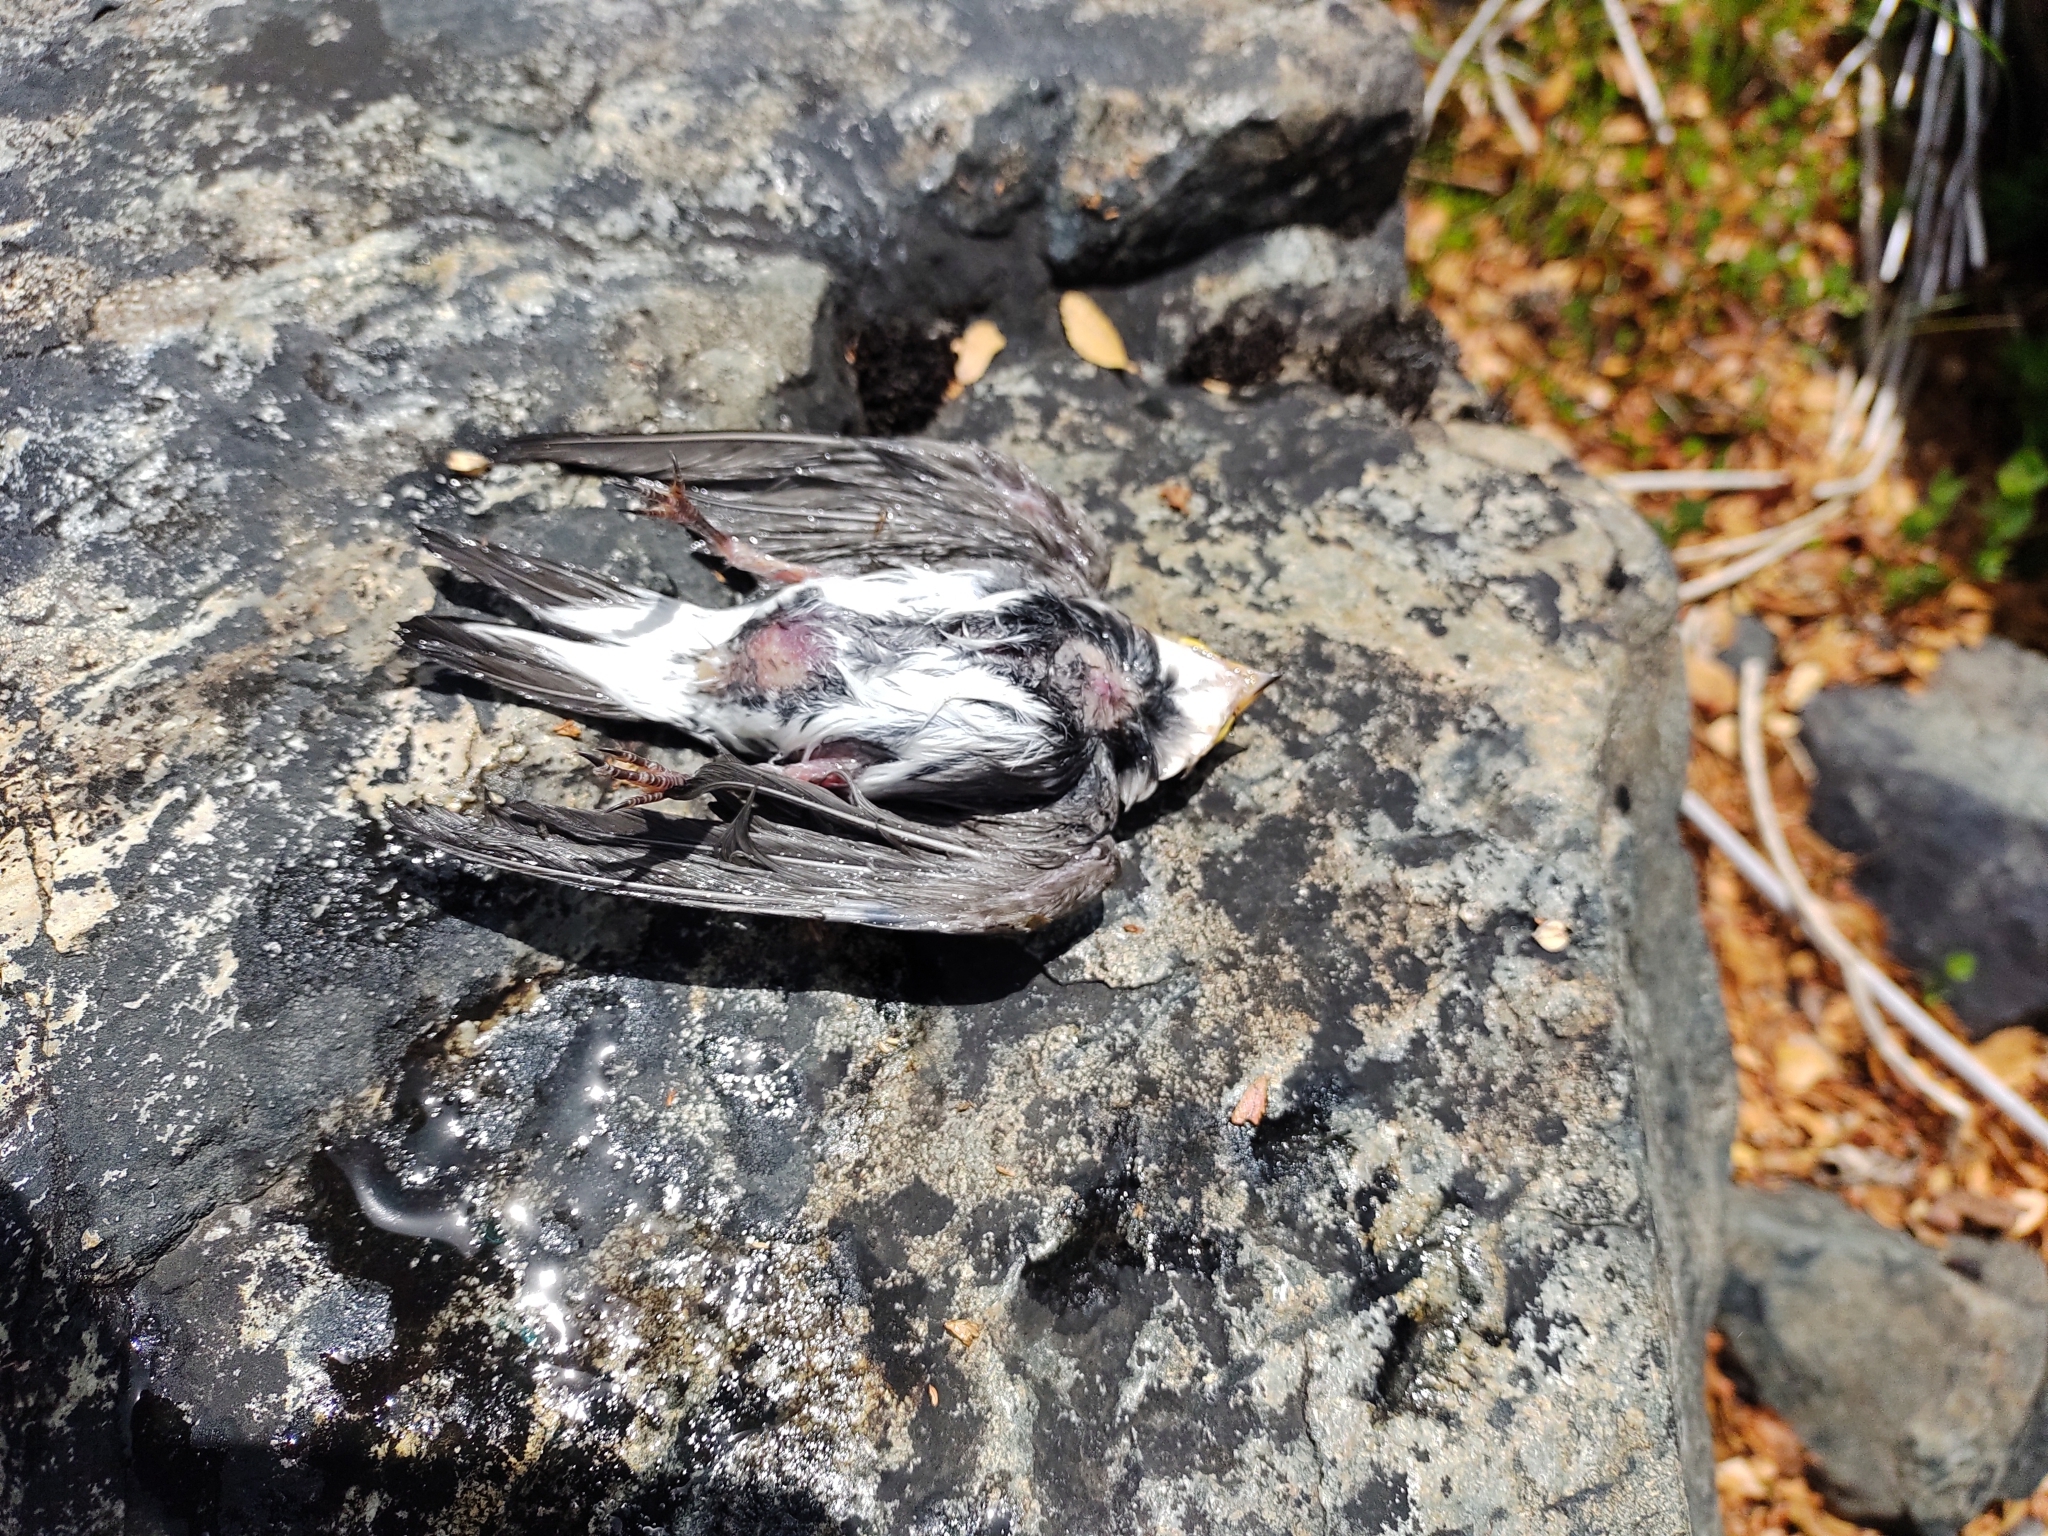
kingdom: Animalia
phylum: Chordata
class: Aves
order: Passeriformes
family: Hirundinidae
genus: Tachycineta
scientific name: Tachycineta leucopyga
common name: Chilean swallow
